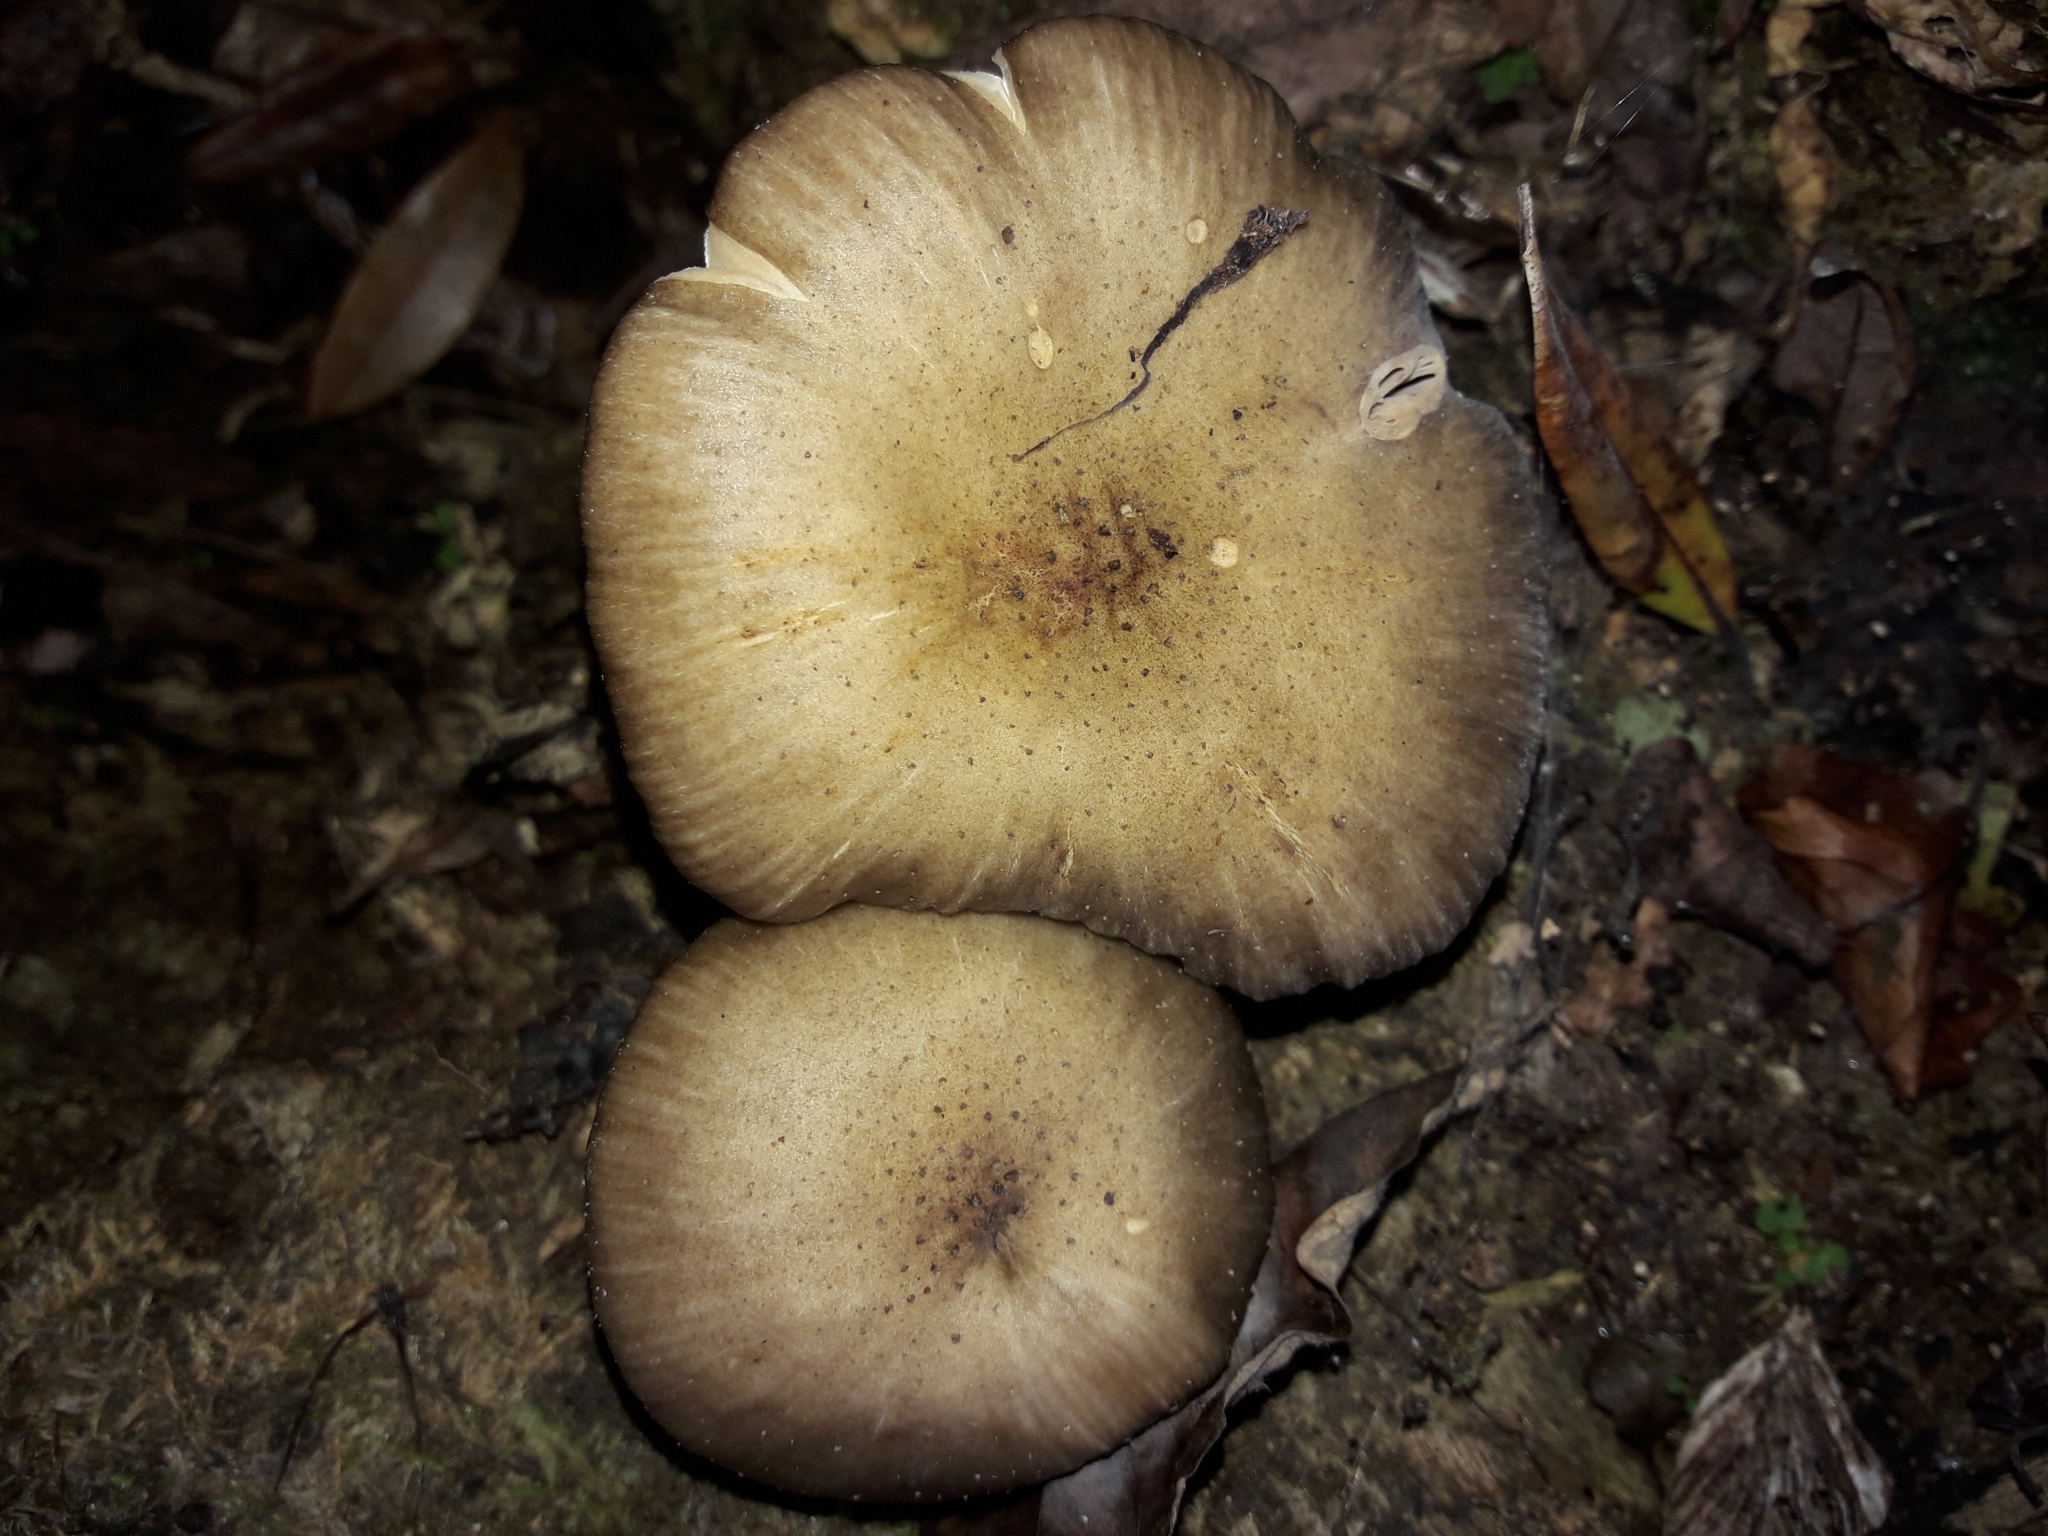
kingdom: Fungi
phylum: Basidiomycota
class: Agaricomycetes
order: Agaricales
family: Physalacriaceae
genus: Armillaria
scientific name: Armillaria novae-zelandiae
